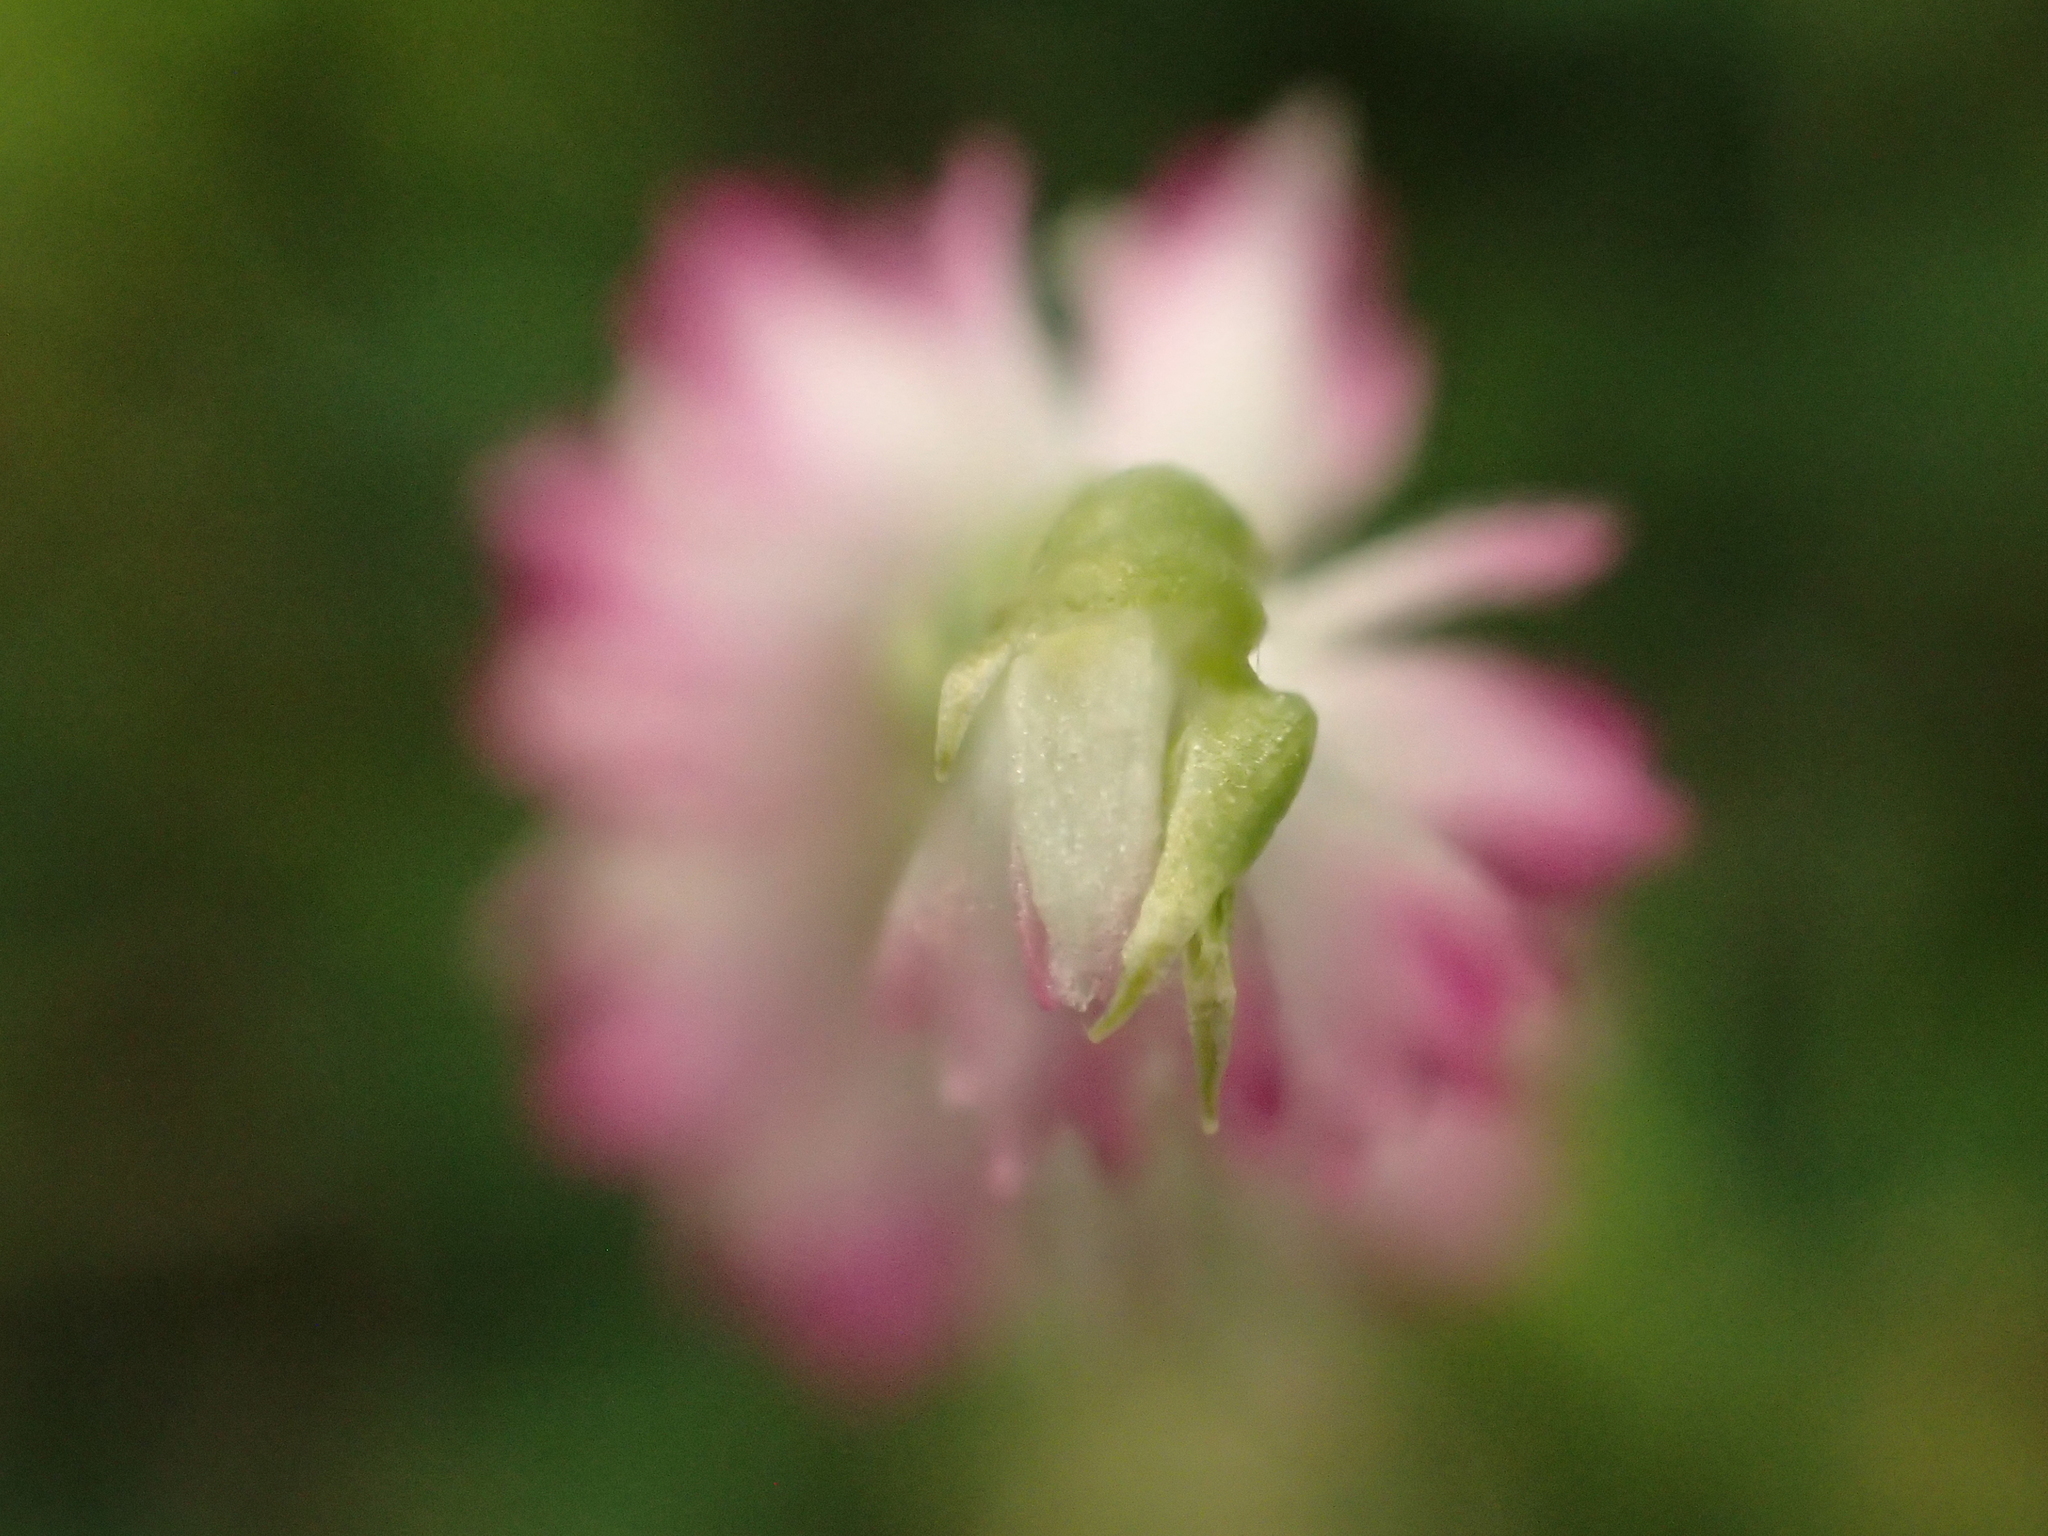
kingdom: Plantae
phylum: Tracheophyta
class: Liliopsida
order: Asparagales
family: Orchidaceae
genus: Spiranthes
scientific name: Spiranthes sinensis
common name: Chinese spiranthes
